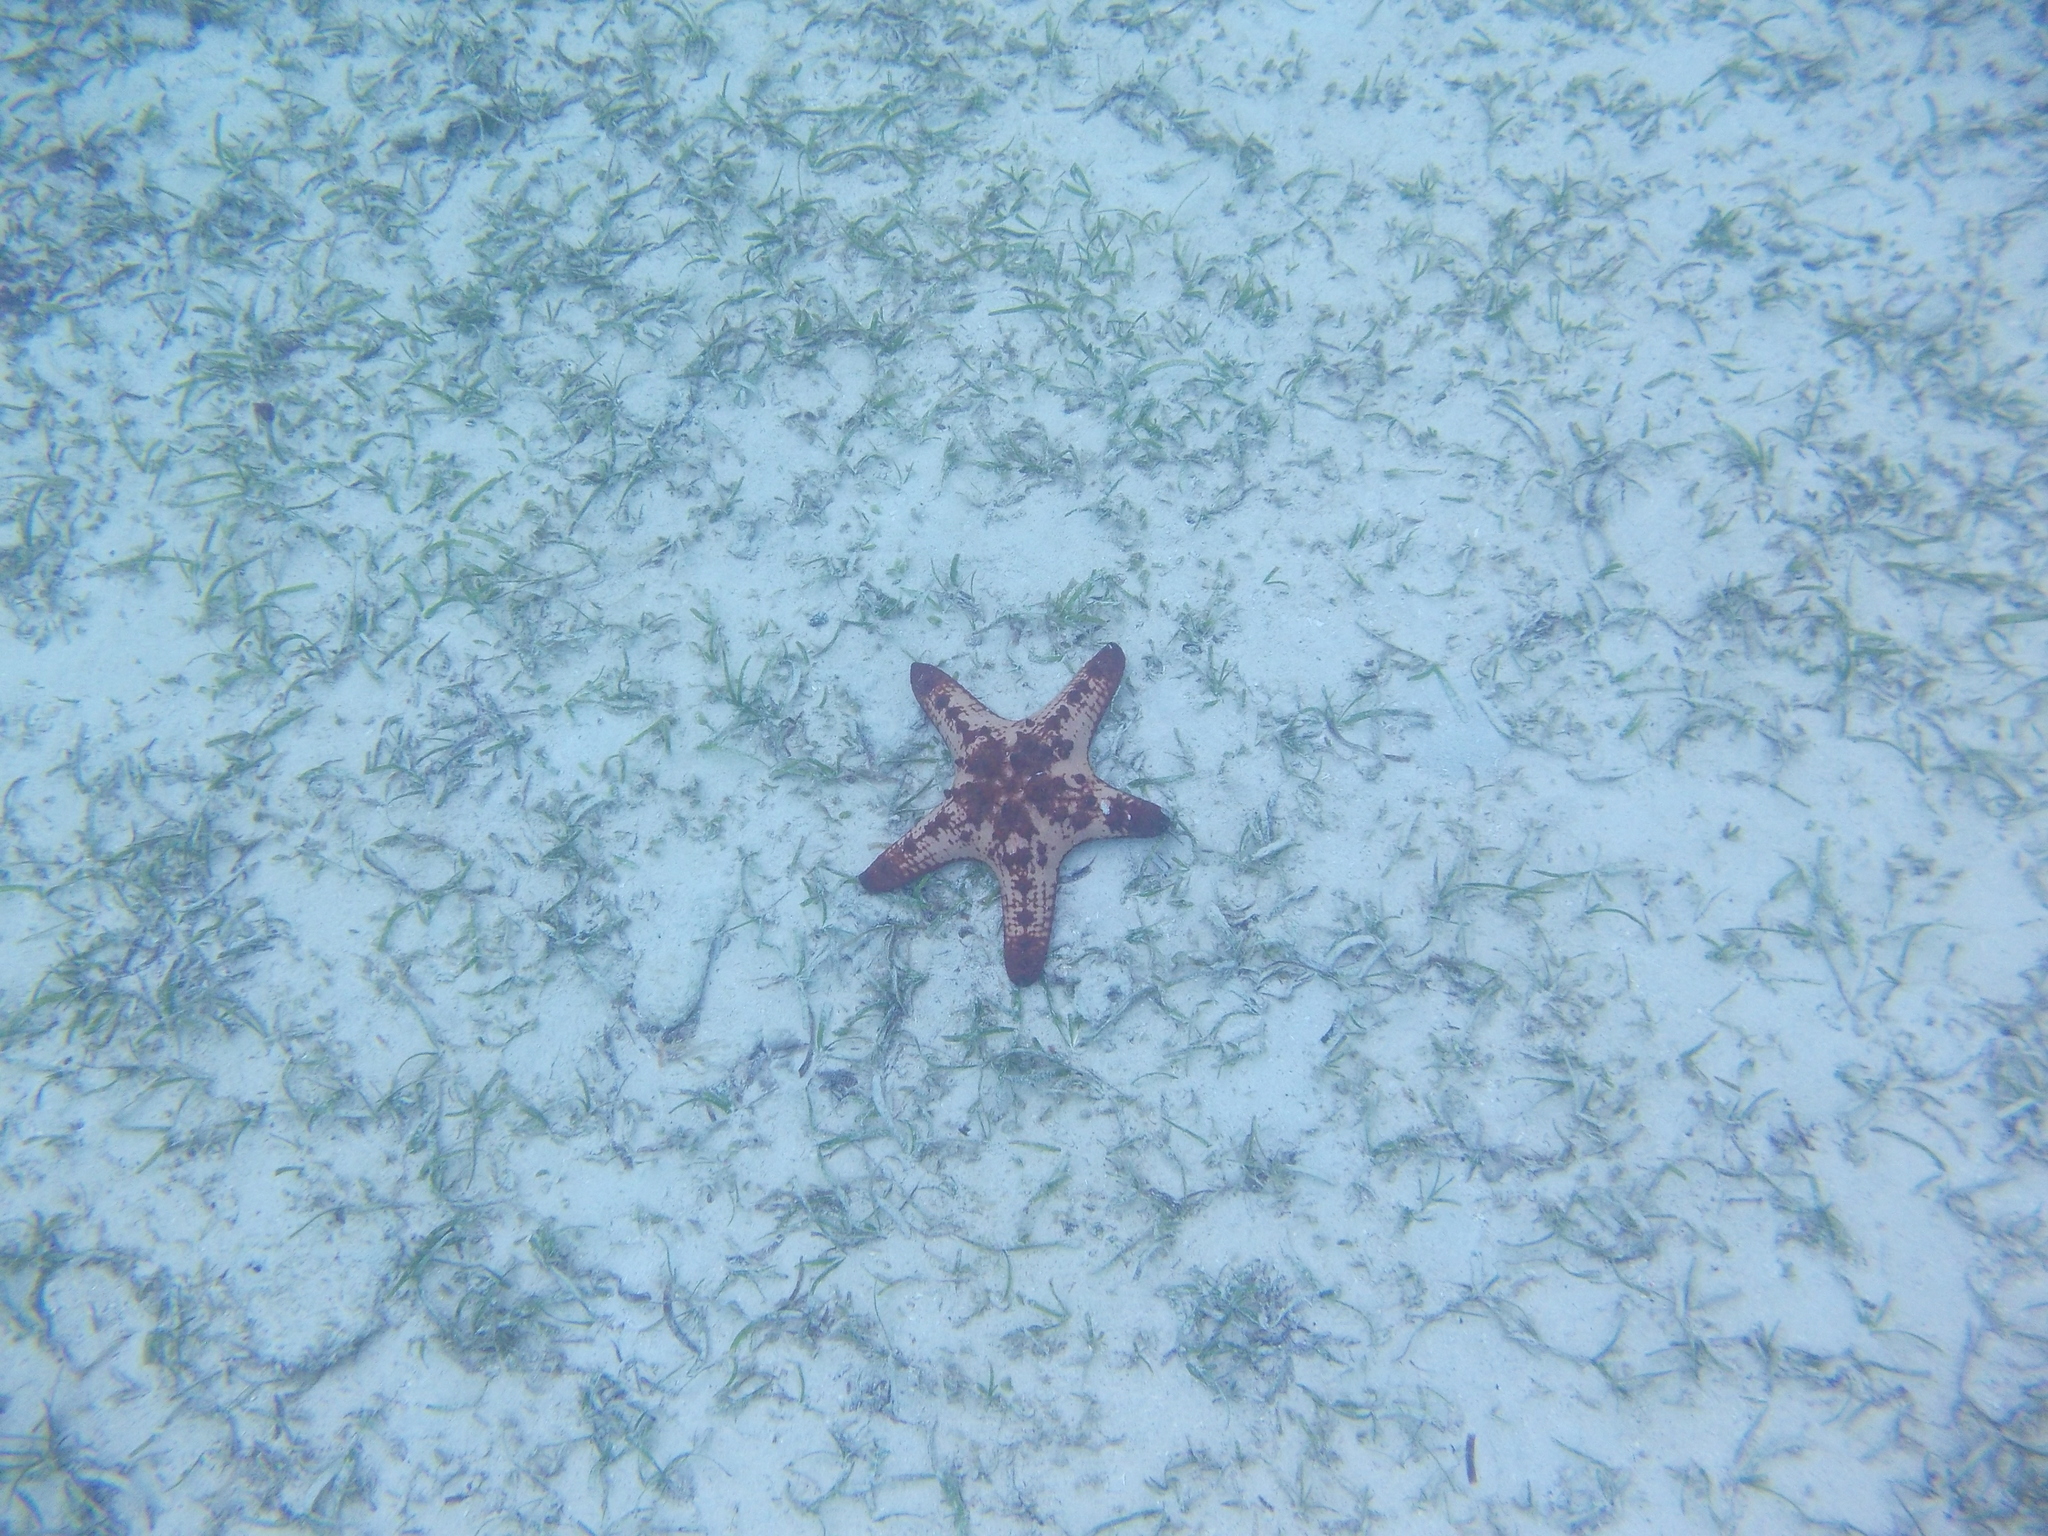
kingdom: Animalia
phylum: Echinodermata
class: Asteroidea
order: Valvatida
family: Oreasteridae
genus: Protoreaster
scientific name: Protoreaster nodosus
